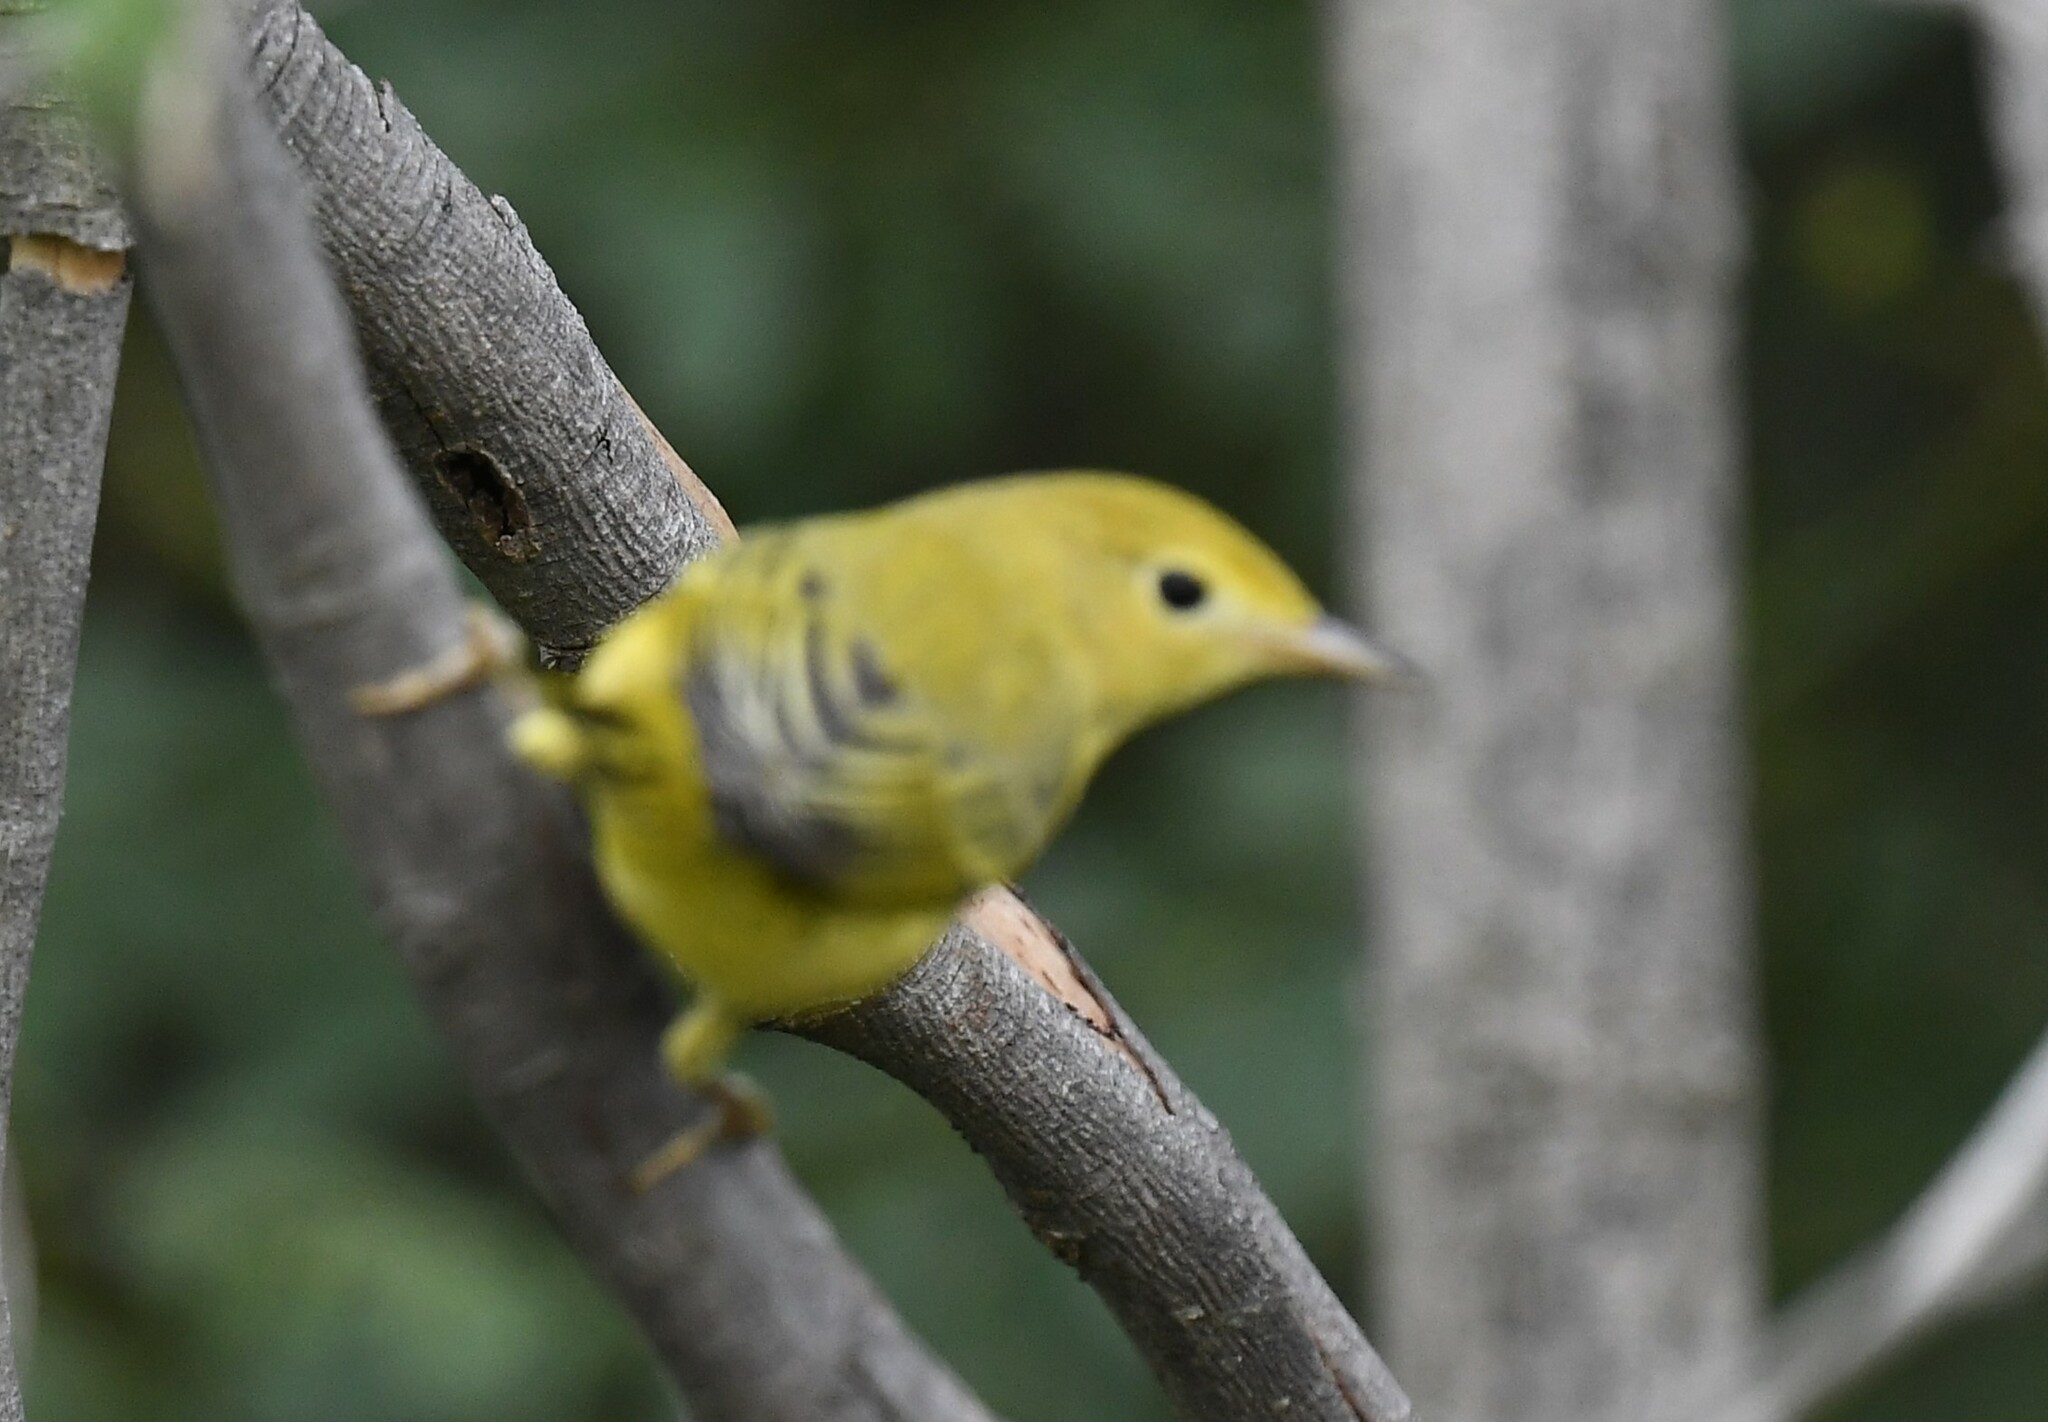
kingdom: Animalia
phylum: Chordata
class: Aves
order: Passeriformes
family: Parulidae
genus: Setophaga
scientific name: Setophaga petechia
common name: Yellow warbler
